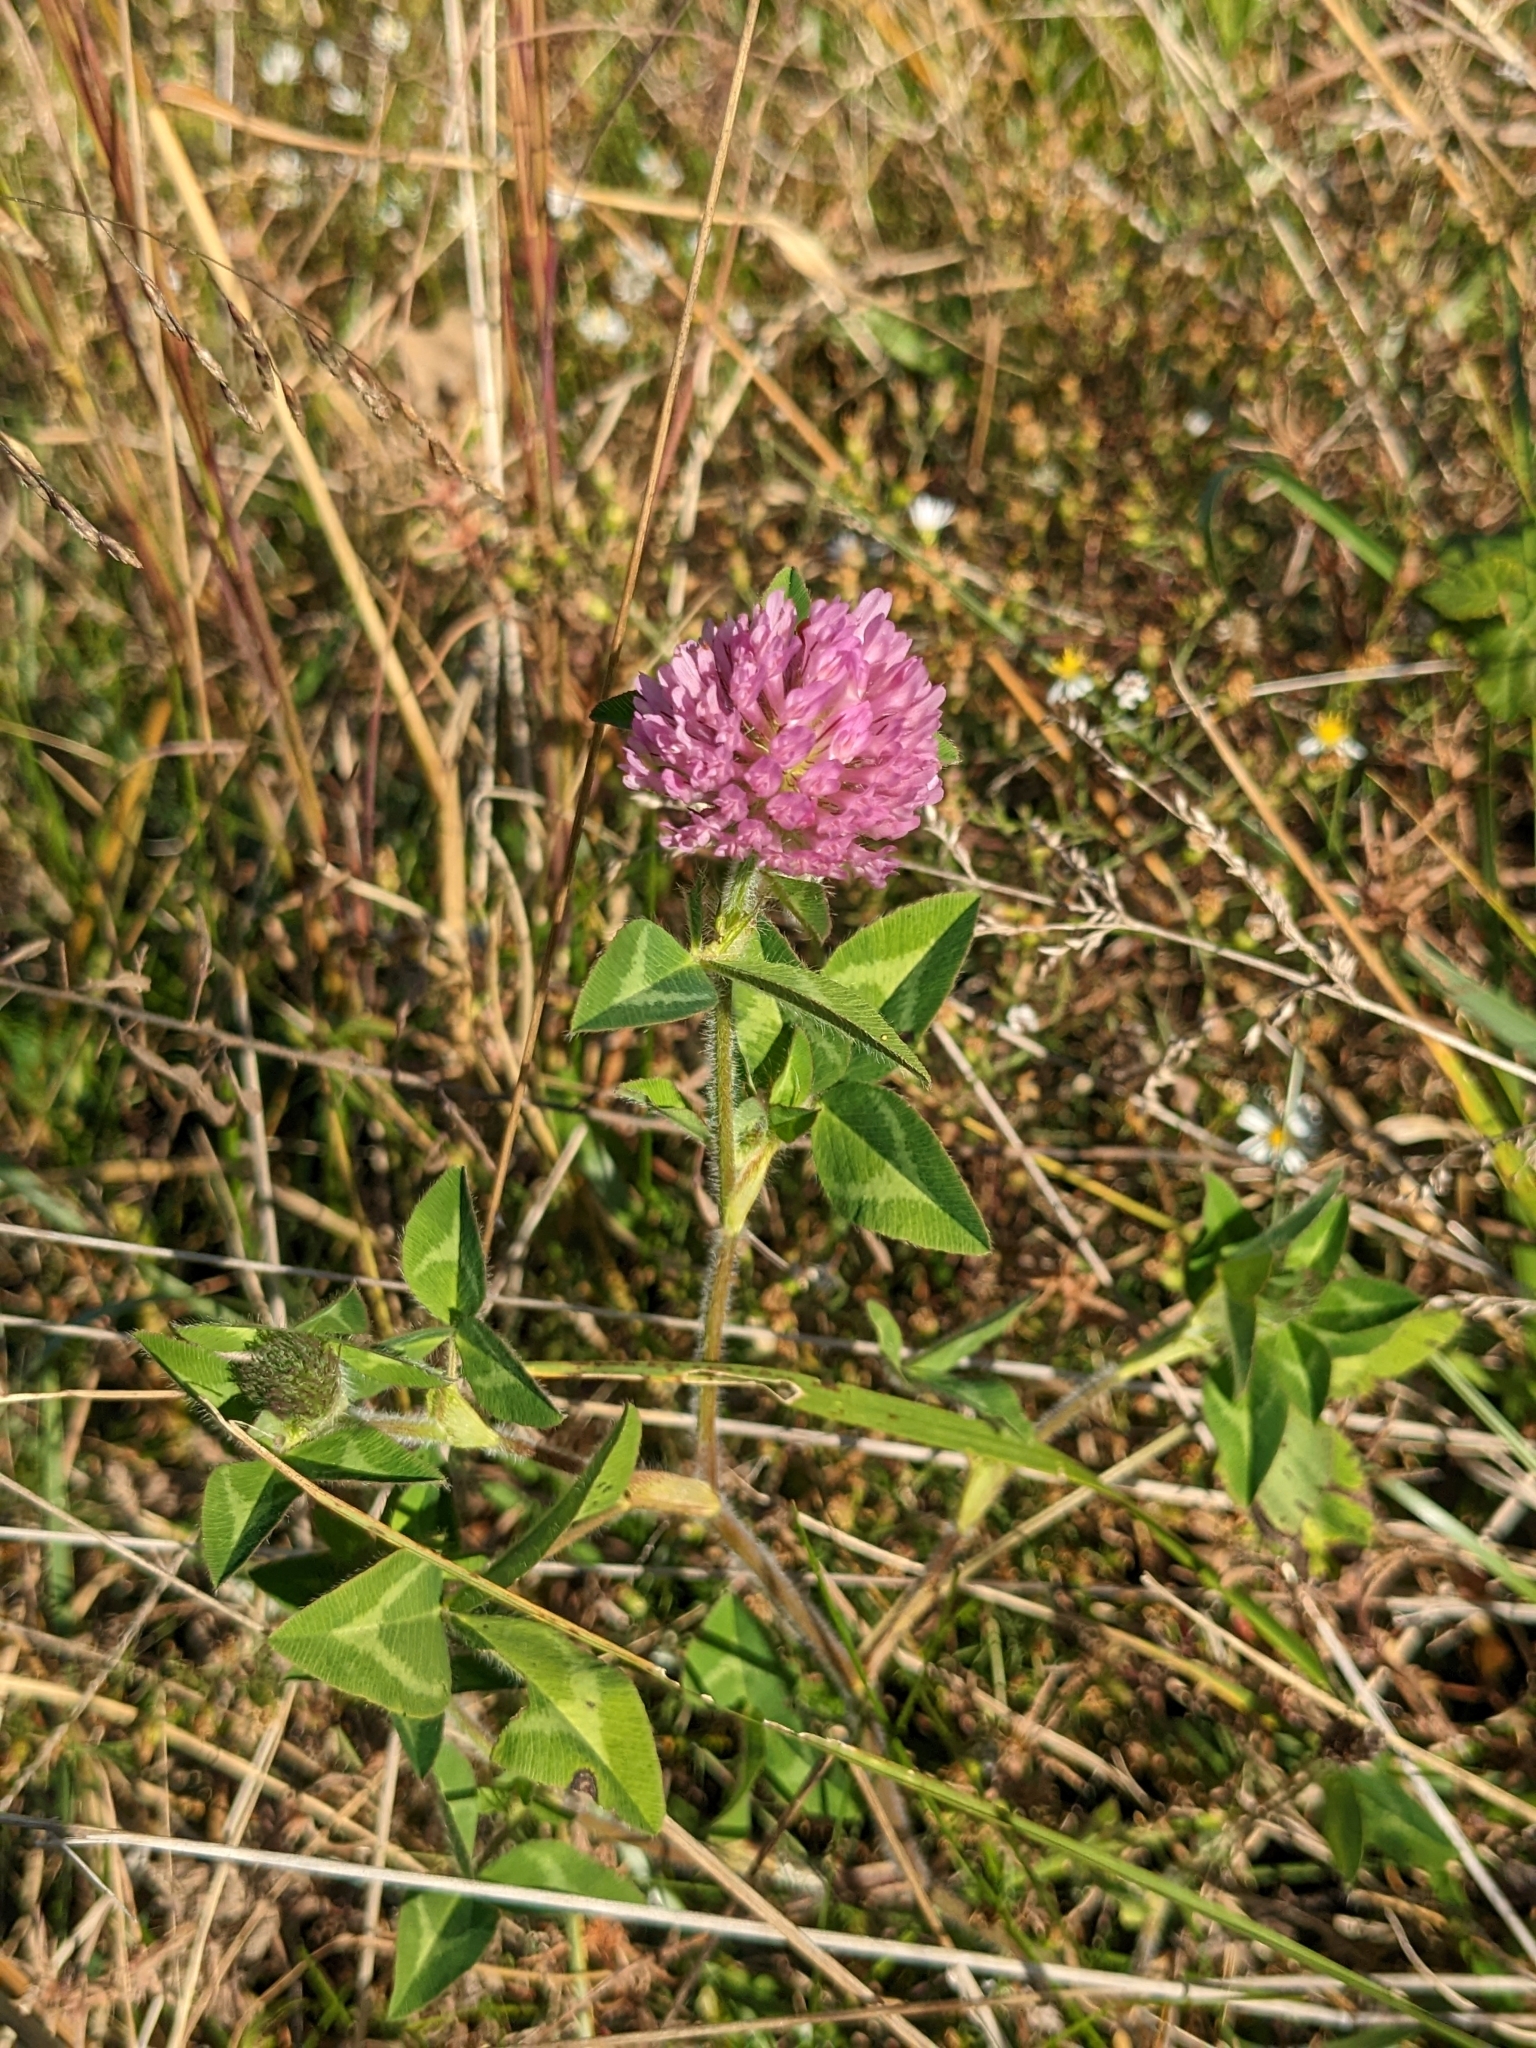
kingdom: Plantae
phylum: Tracheophyta
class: Magnoliopsida
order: Fabales
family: Fabaceae
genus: Trifolium
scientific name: Trifolium pratense
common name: Red clover
